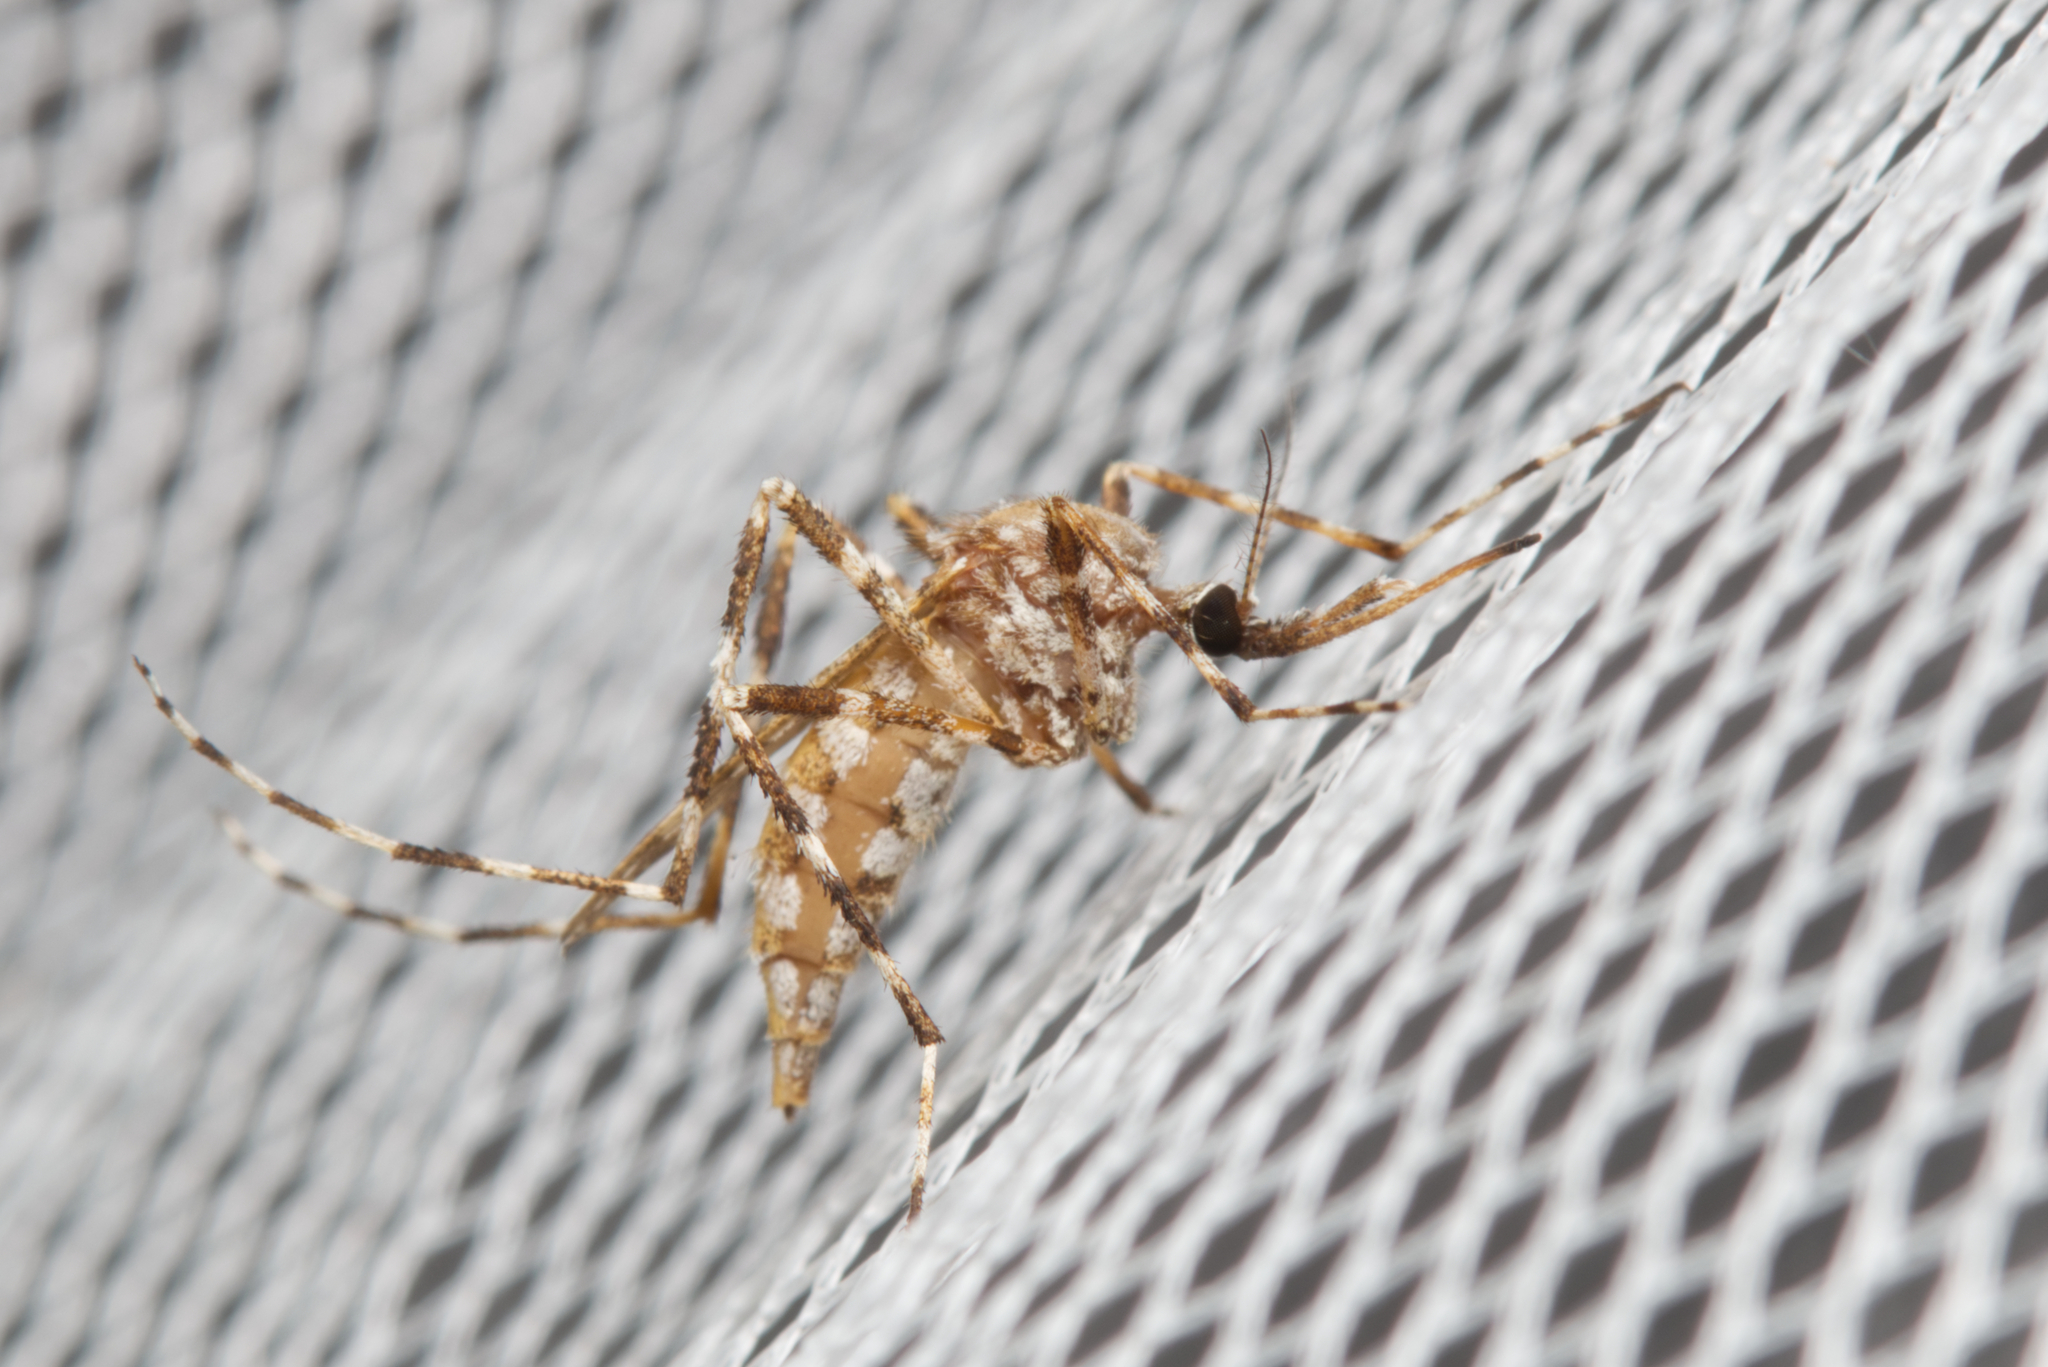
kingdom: Animalia
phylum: Arthropoda
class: Insecta
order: Diptera
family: Culicidae
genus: Aedes
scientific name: Aedes alternans
